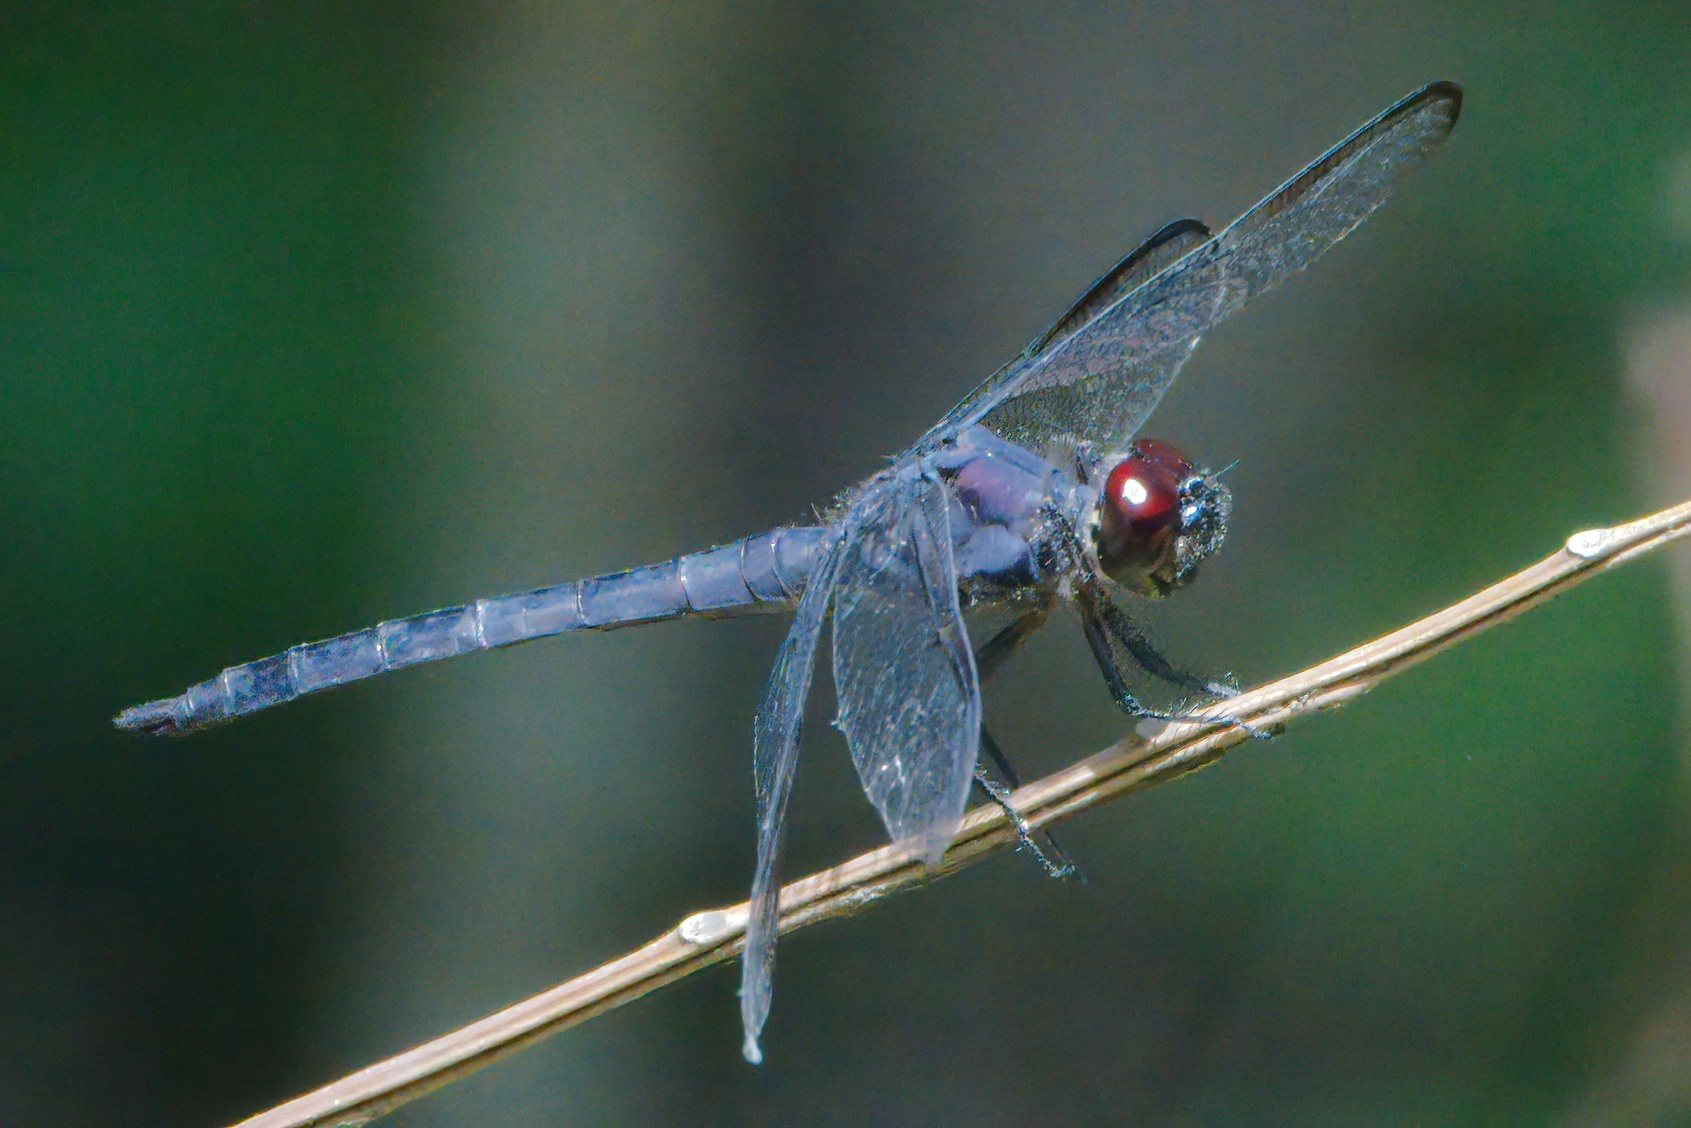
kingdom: Animalia
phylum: Arthropoda
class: Insecta
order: Odonata
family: Libellulidae
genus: Libellula
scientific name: Libellula incesta
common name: Slaty skimmer
